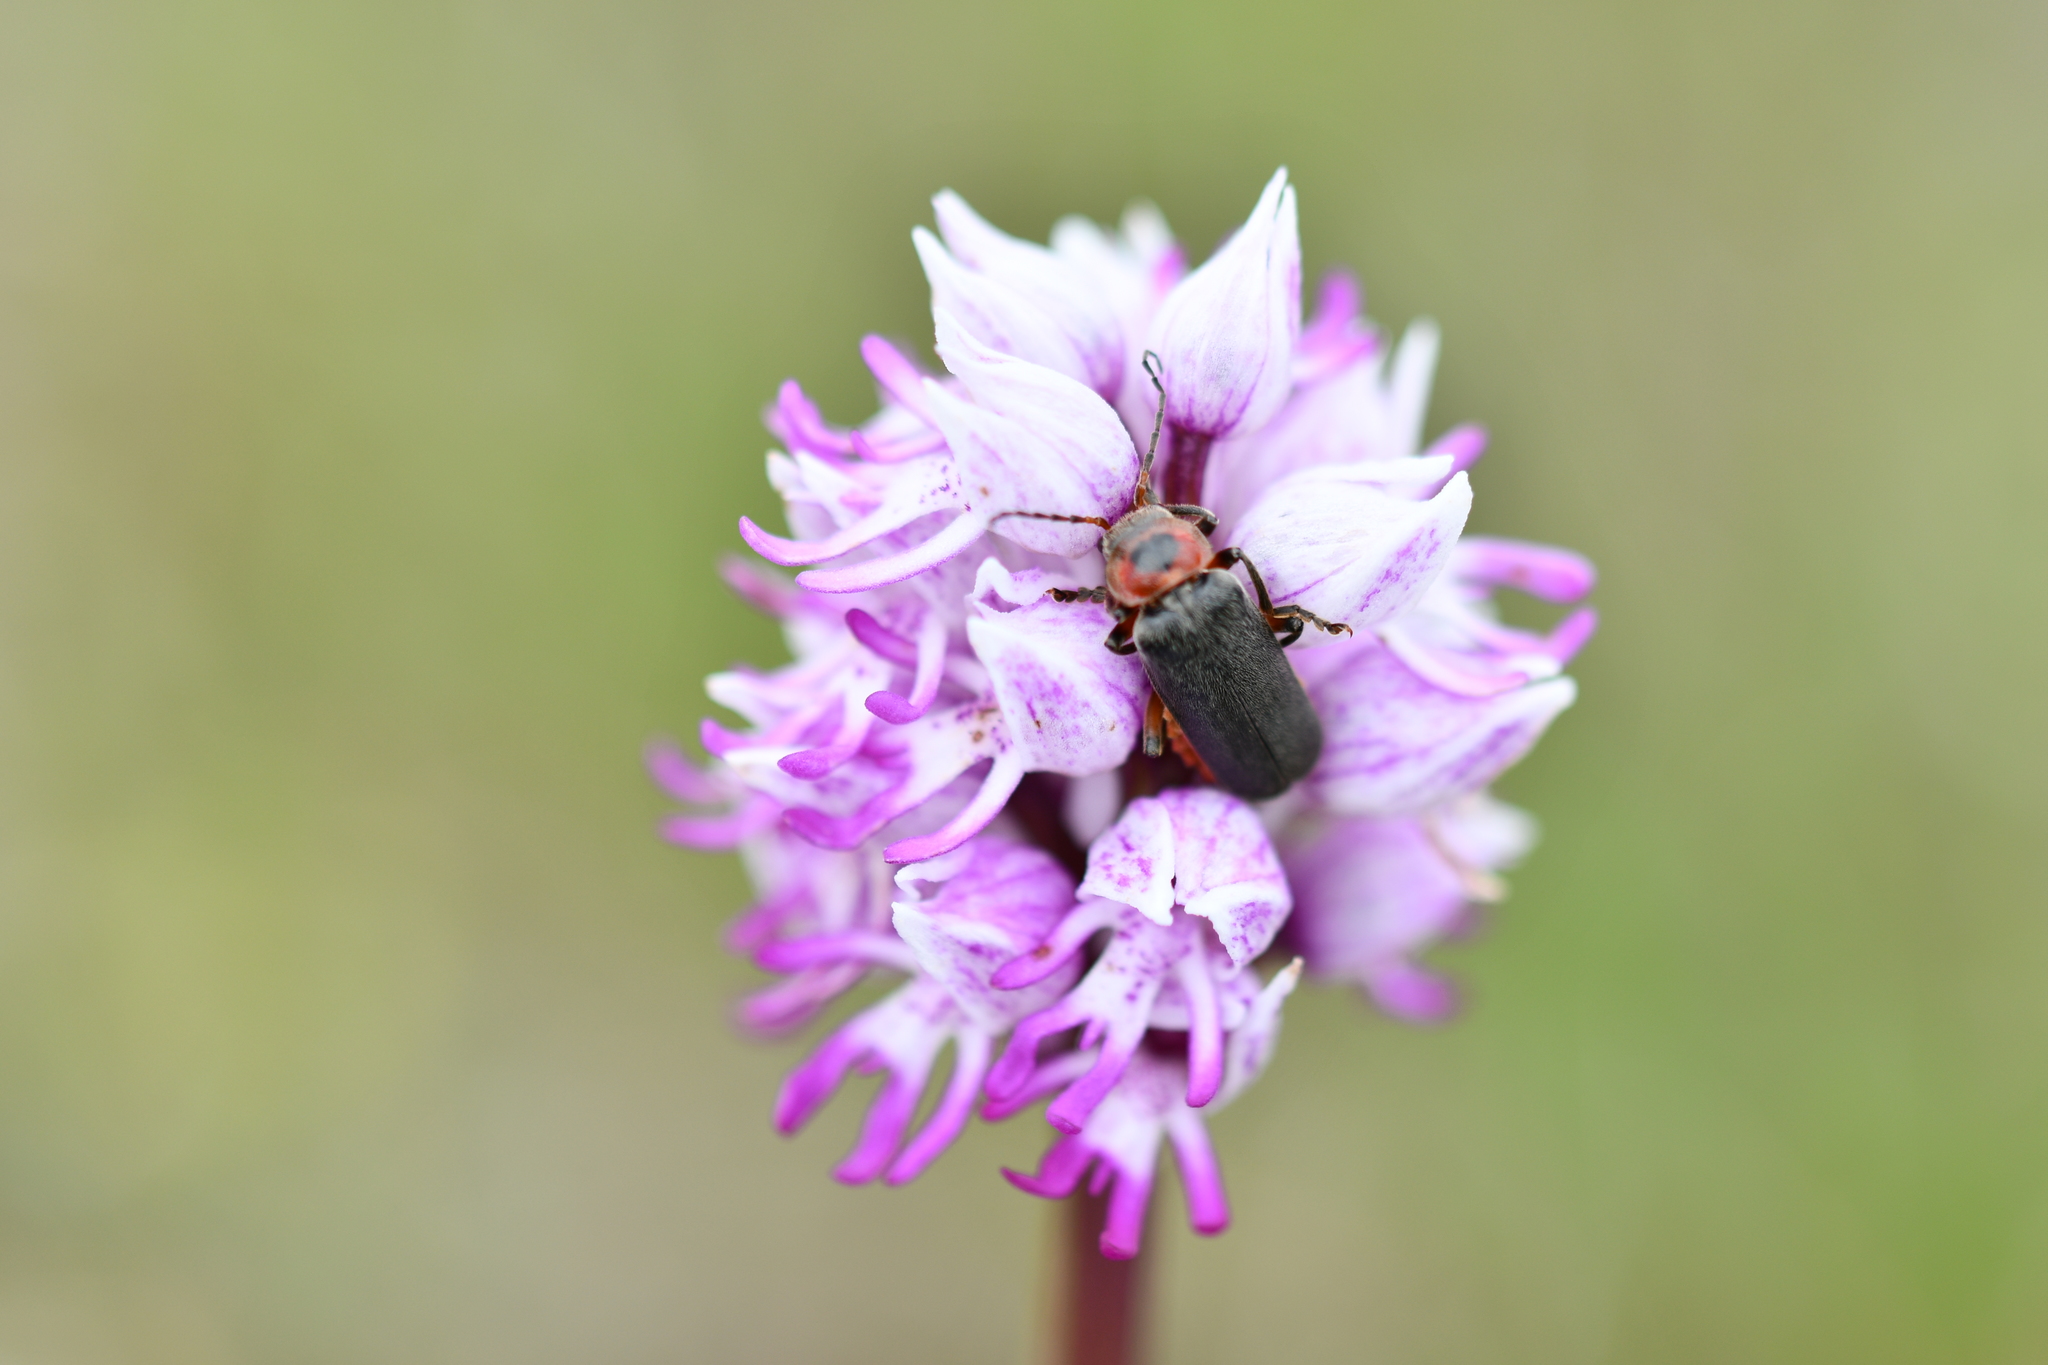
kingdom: Animalia
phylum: Arthropoda
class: Insecta
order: Coleoptera
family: Cantharidae
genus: Cantharis
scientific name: Cantharis rustica
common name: Soldier beetle
